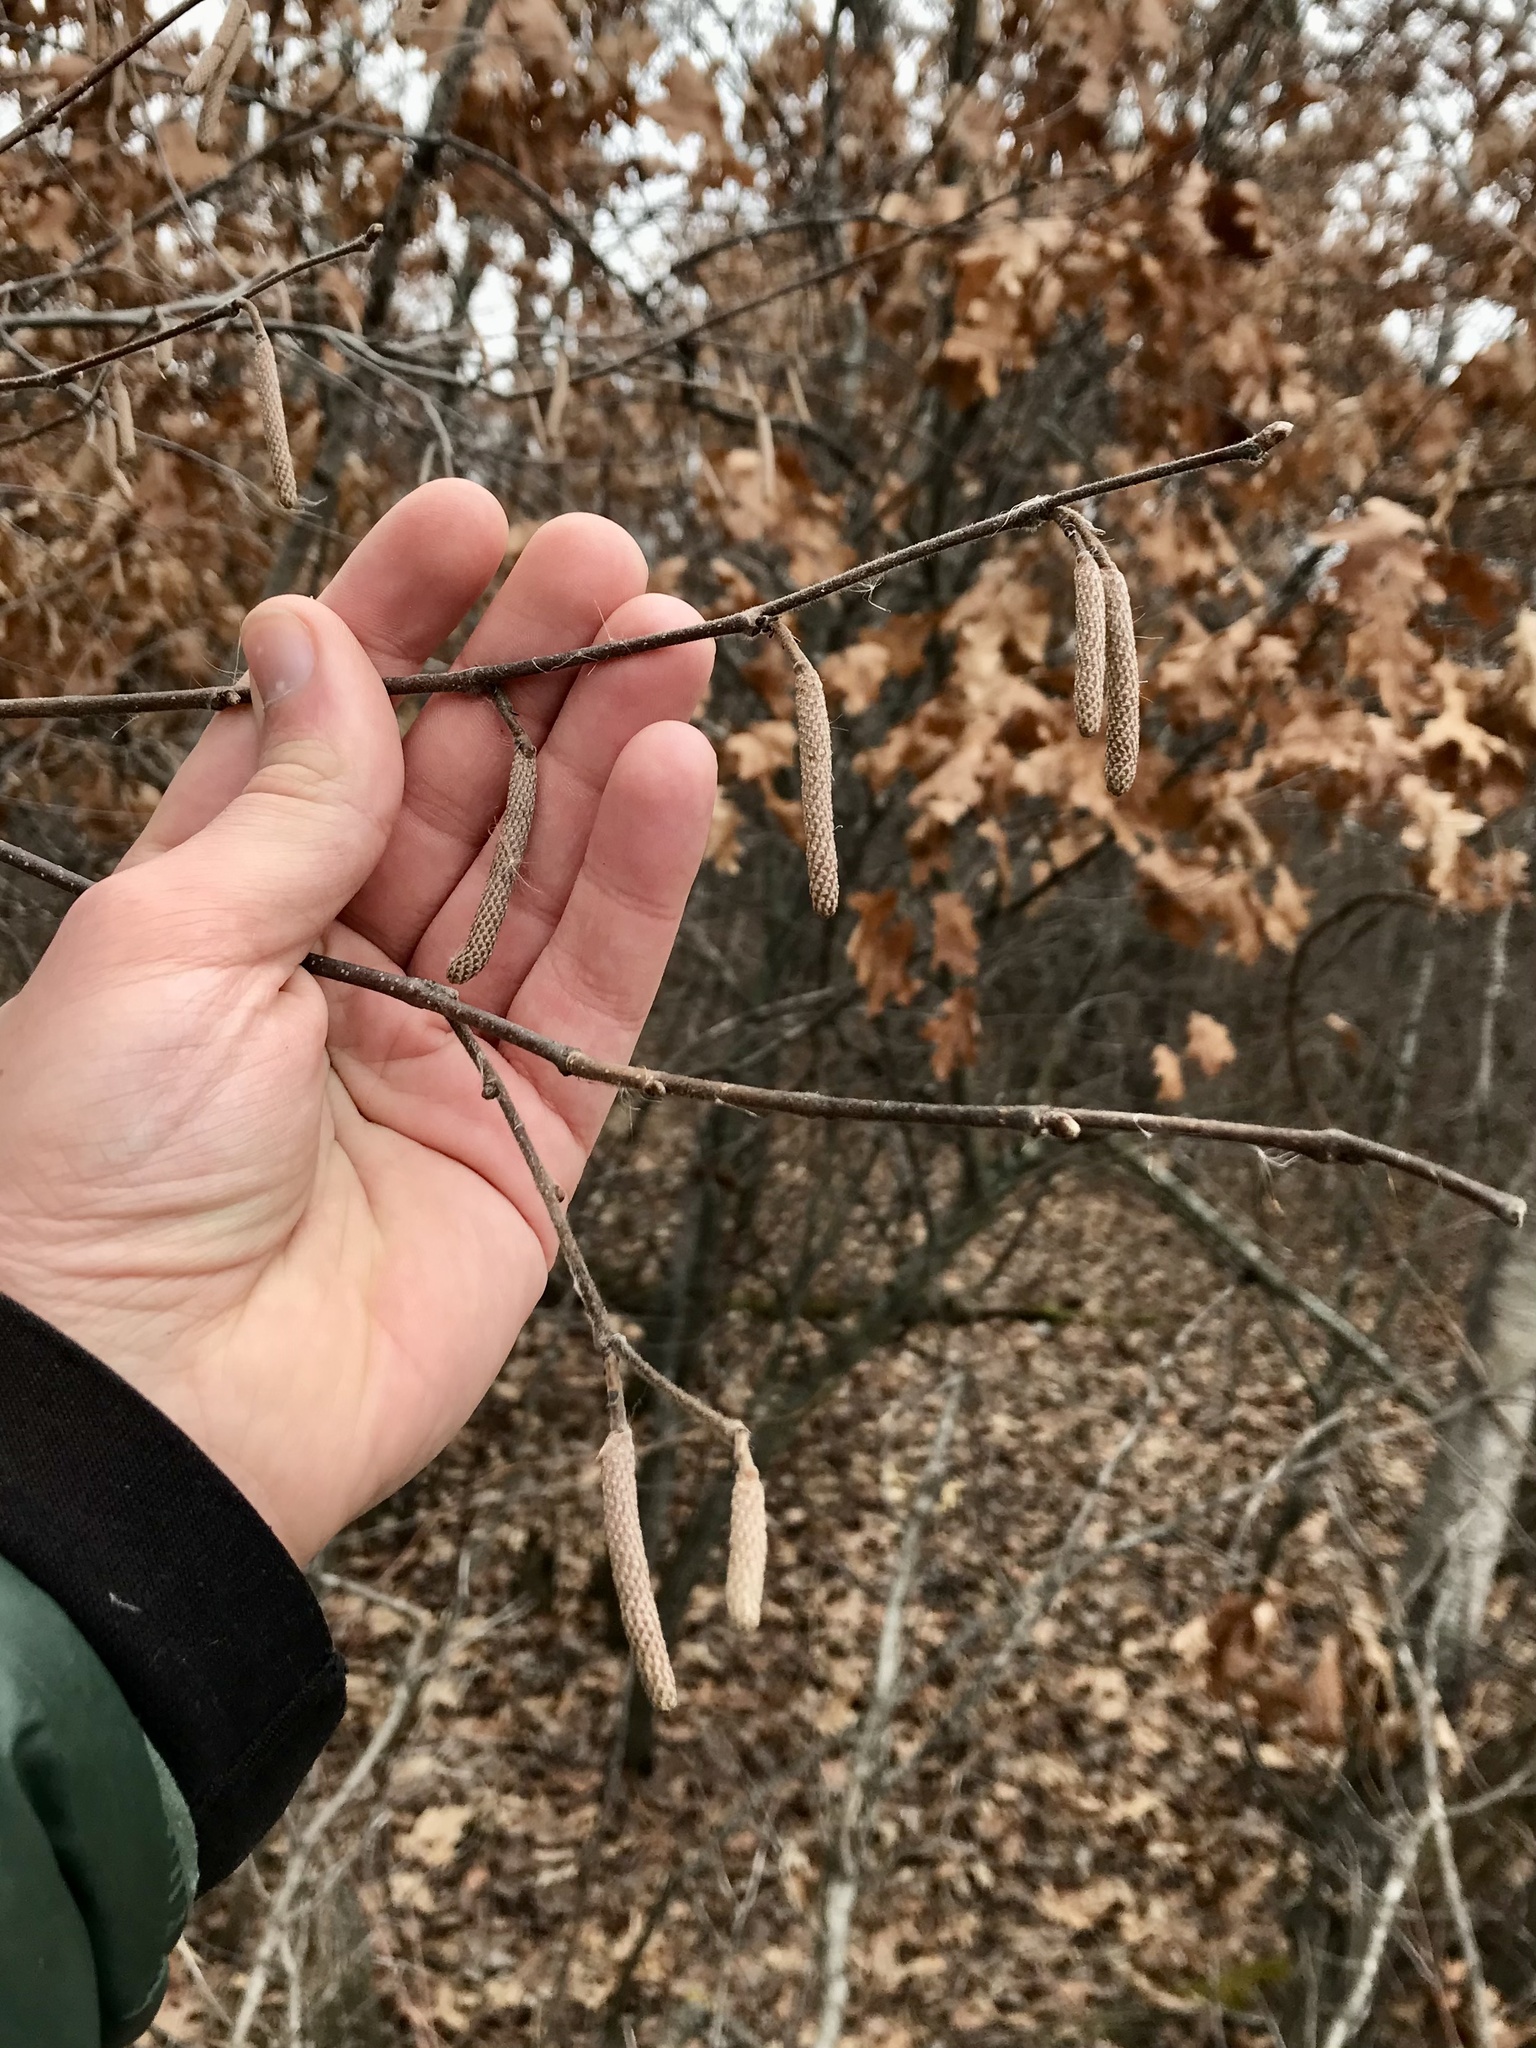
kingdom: Plantae
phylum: Tracheophyta
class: Magnoliopsida
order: Fagales
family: Betulaceae
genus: Corylus
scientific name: Corylus americana
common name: American hazel
